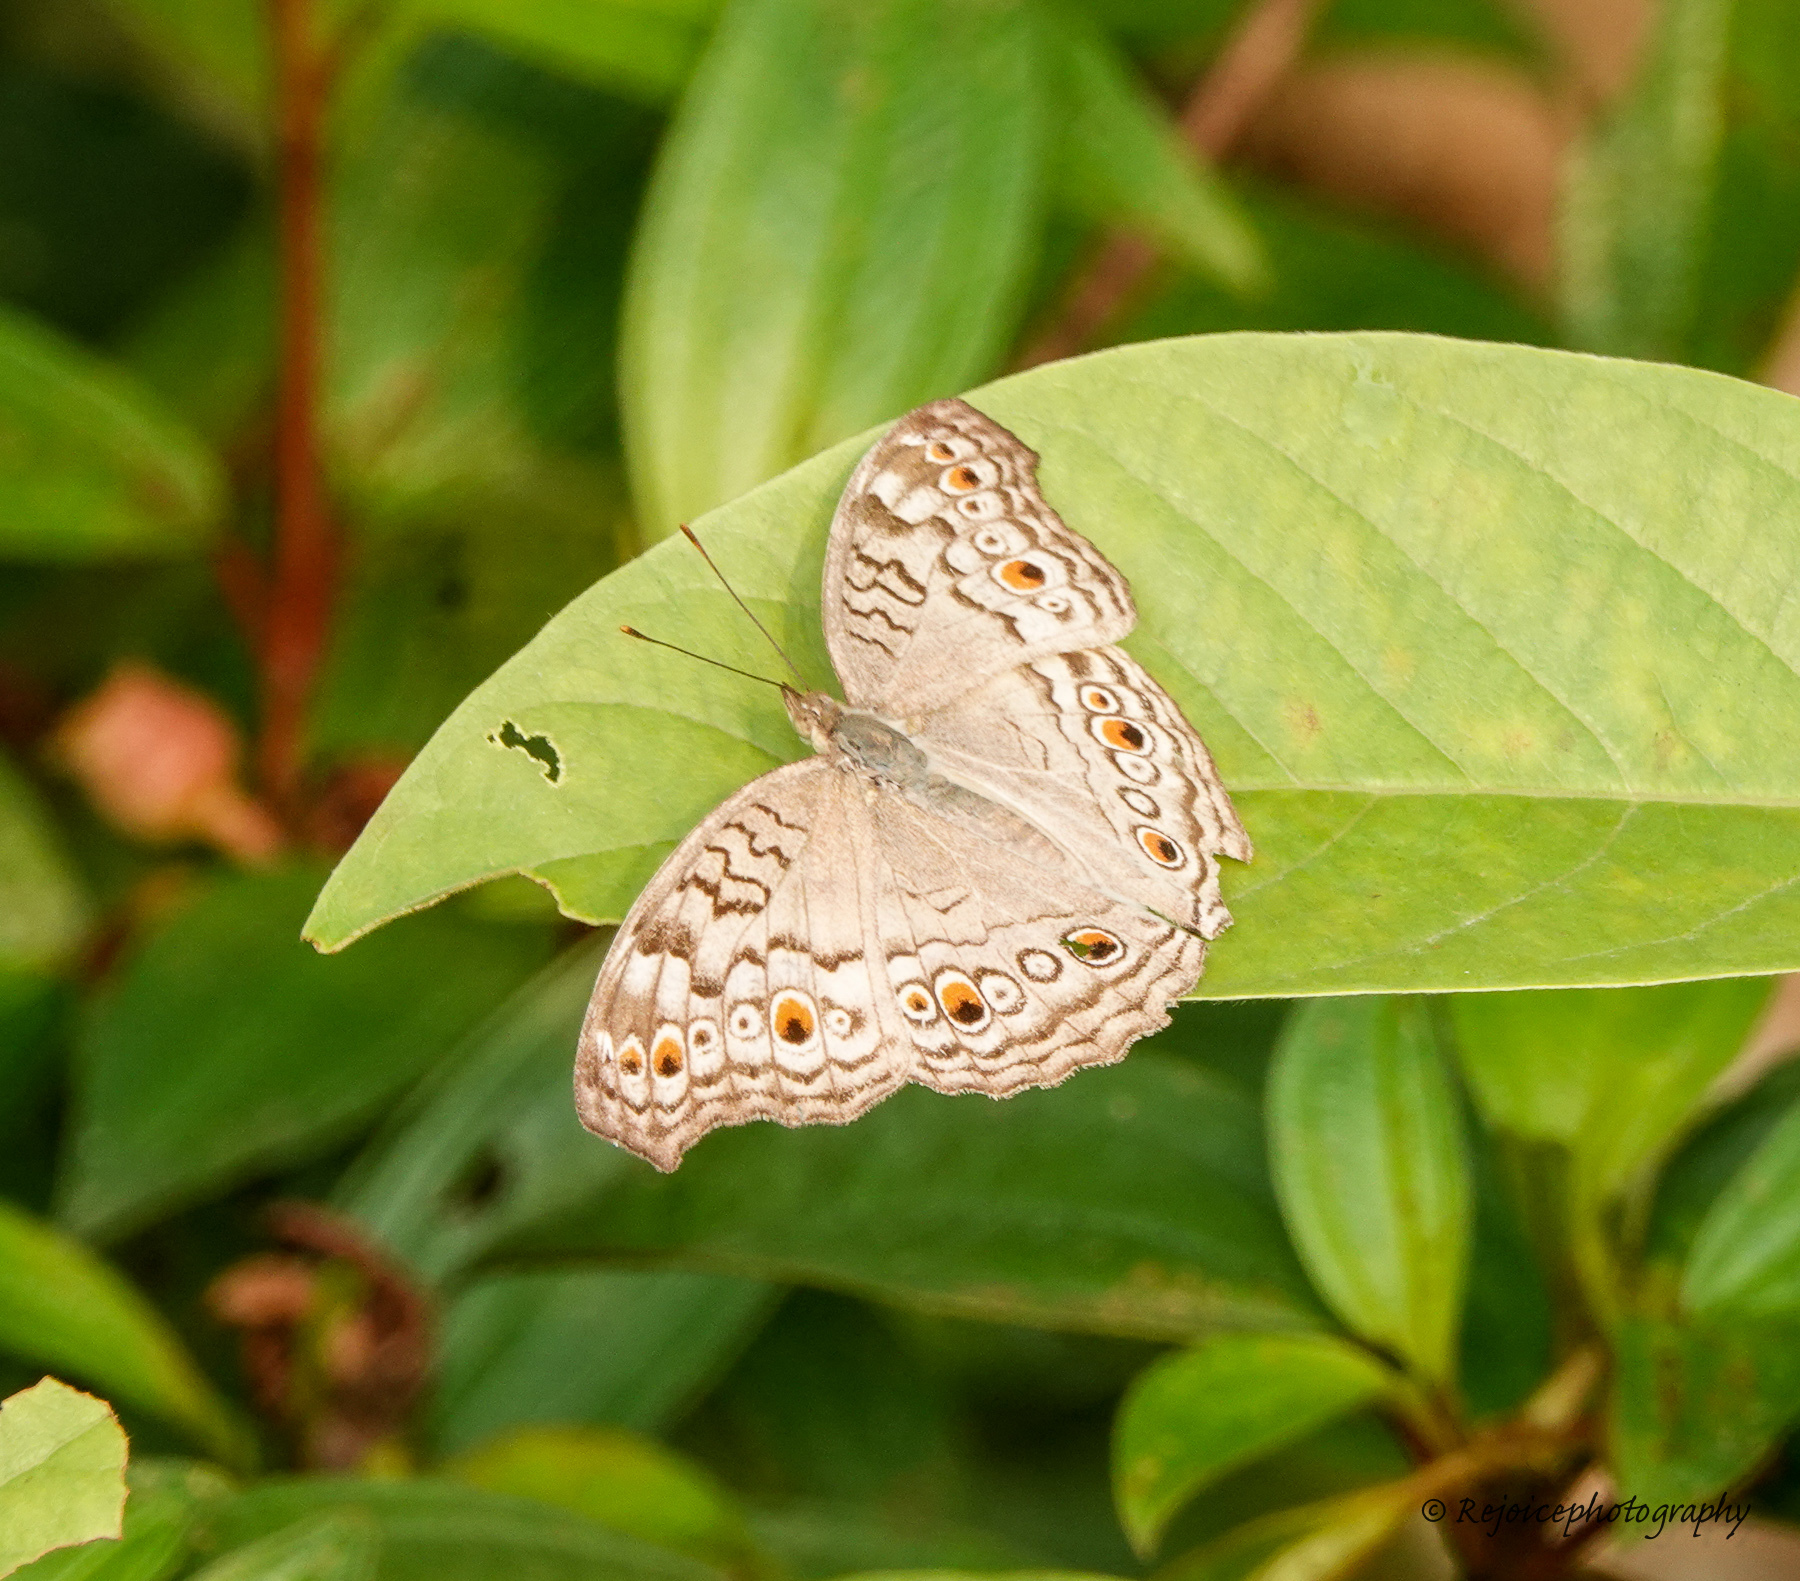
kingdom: Animalia
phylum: Arthropoda
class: Insecta
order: Lepidoptera
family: Nymphalidae
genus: Junonia
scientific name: Junonia atlites
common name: Grey pansy
